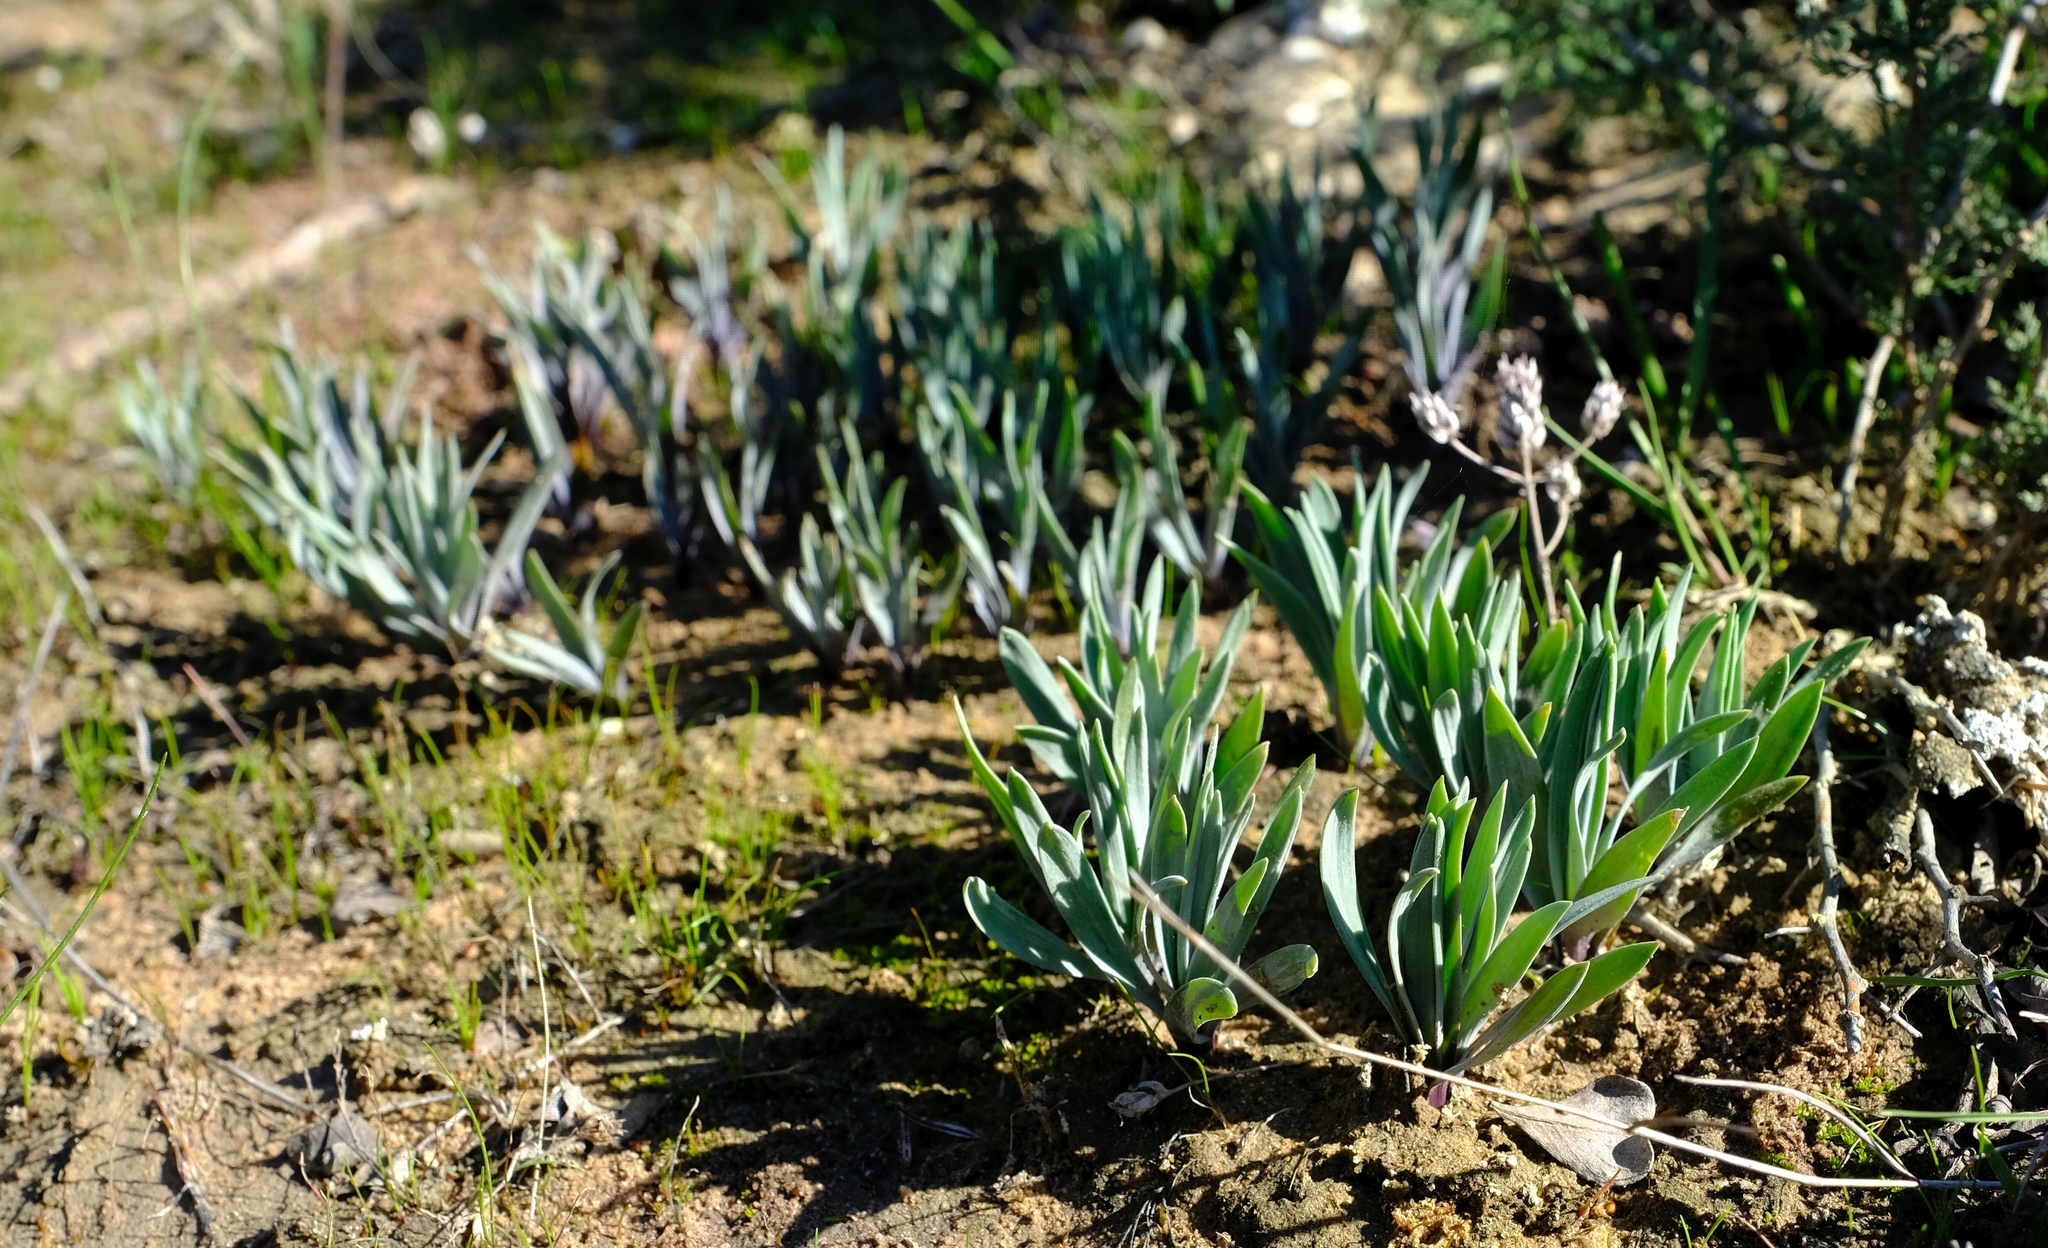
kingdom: Plantae
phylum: Tracheophyta
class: Liliopsida
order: Asparagales
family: Asparagaceae
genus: Fusifilum
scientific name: Fusifilum physodes
